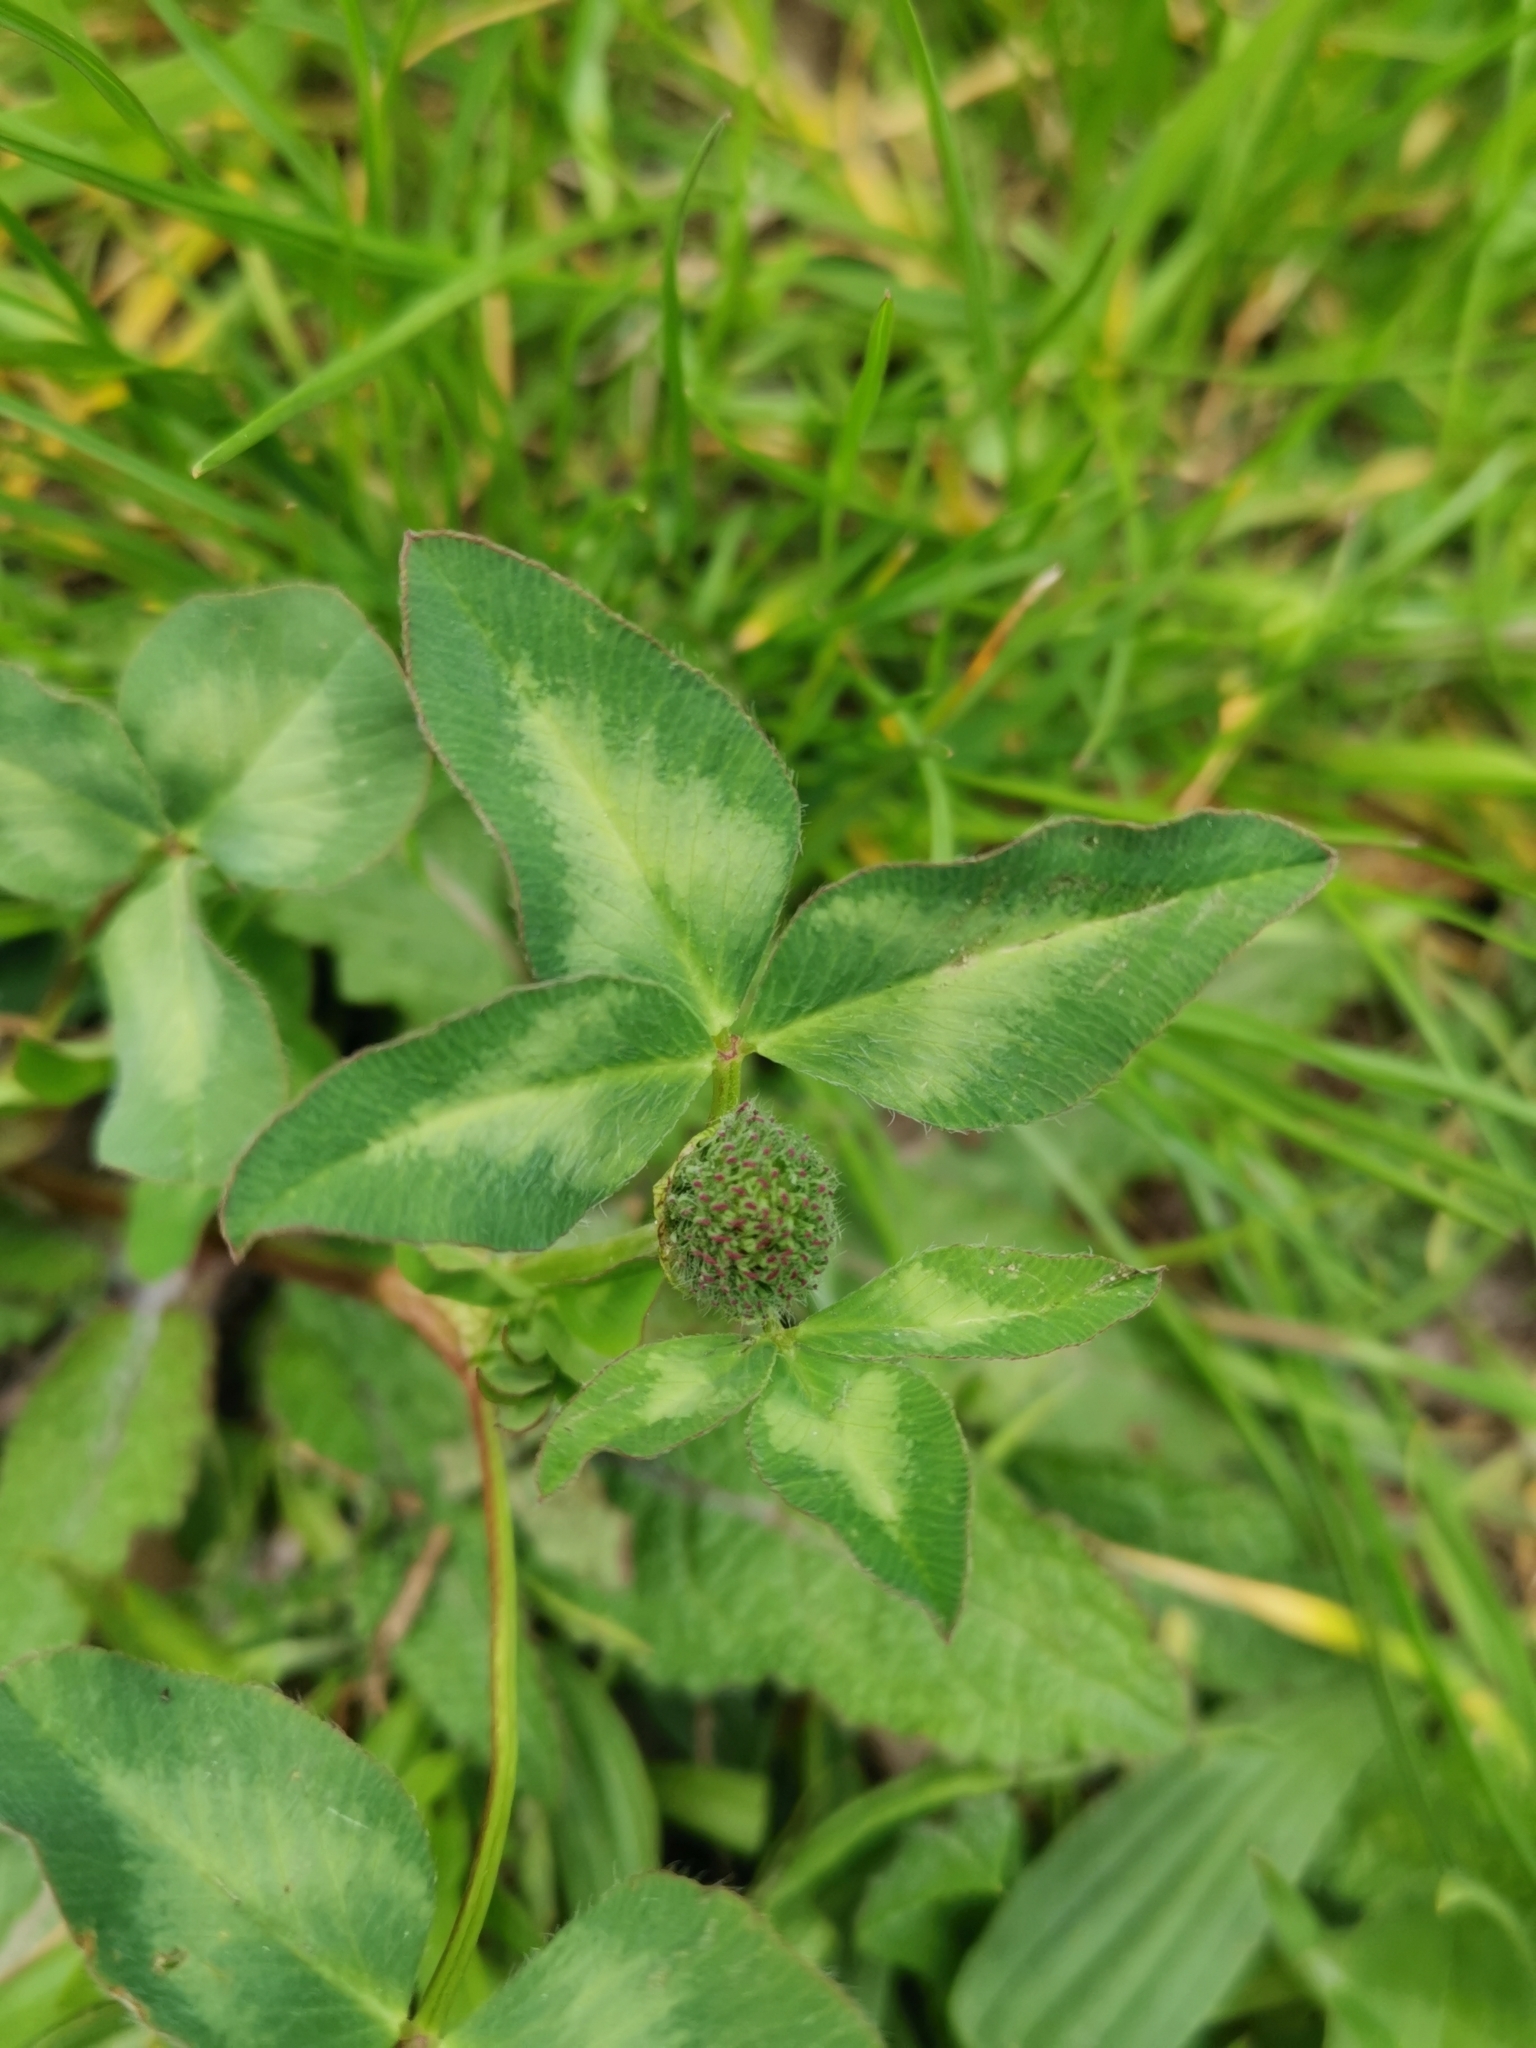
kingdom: Plantae
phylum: Tracheophyta
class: Magnoliopsida
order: Fabales
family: Fabaceae
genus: Trifolium
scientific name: Trifolium pratense
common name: Red clover
